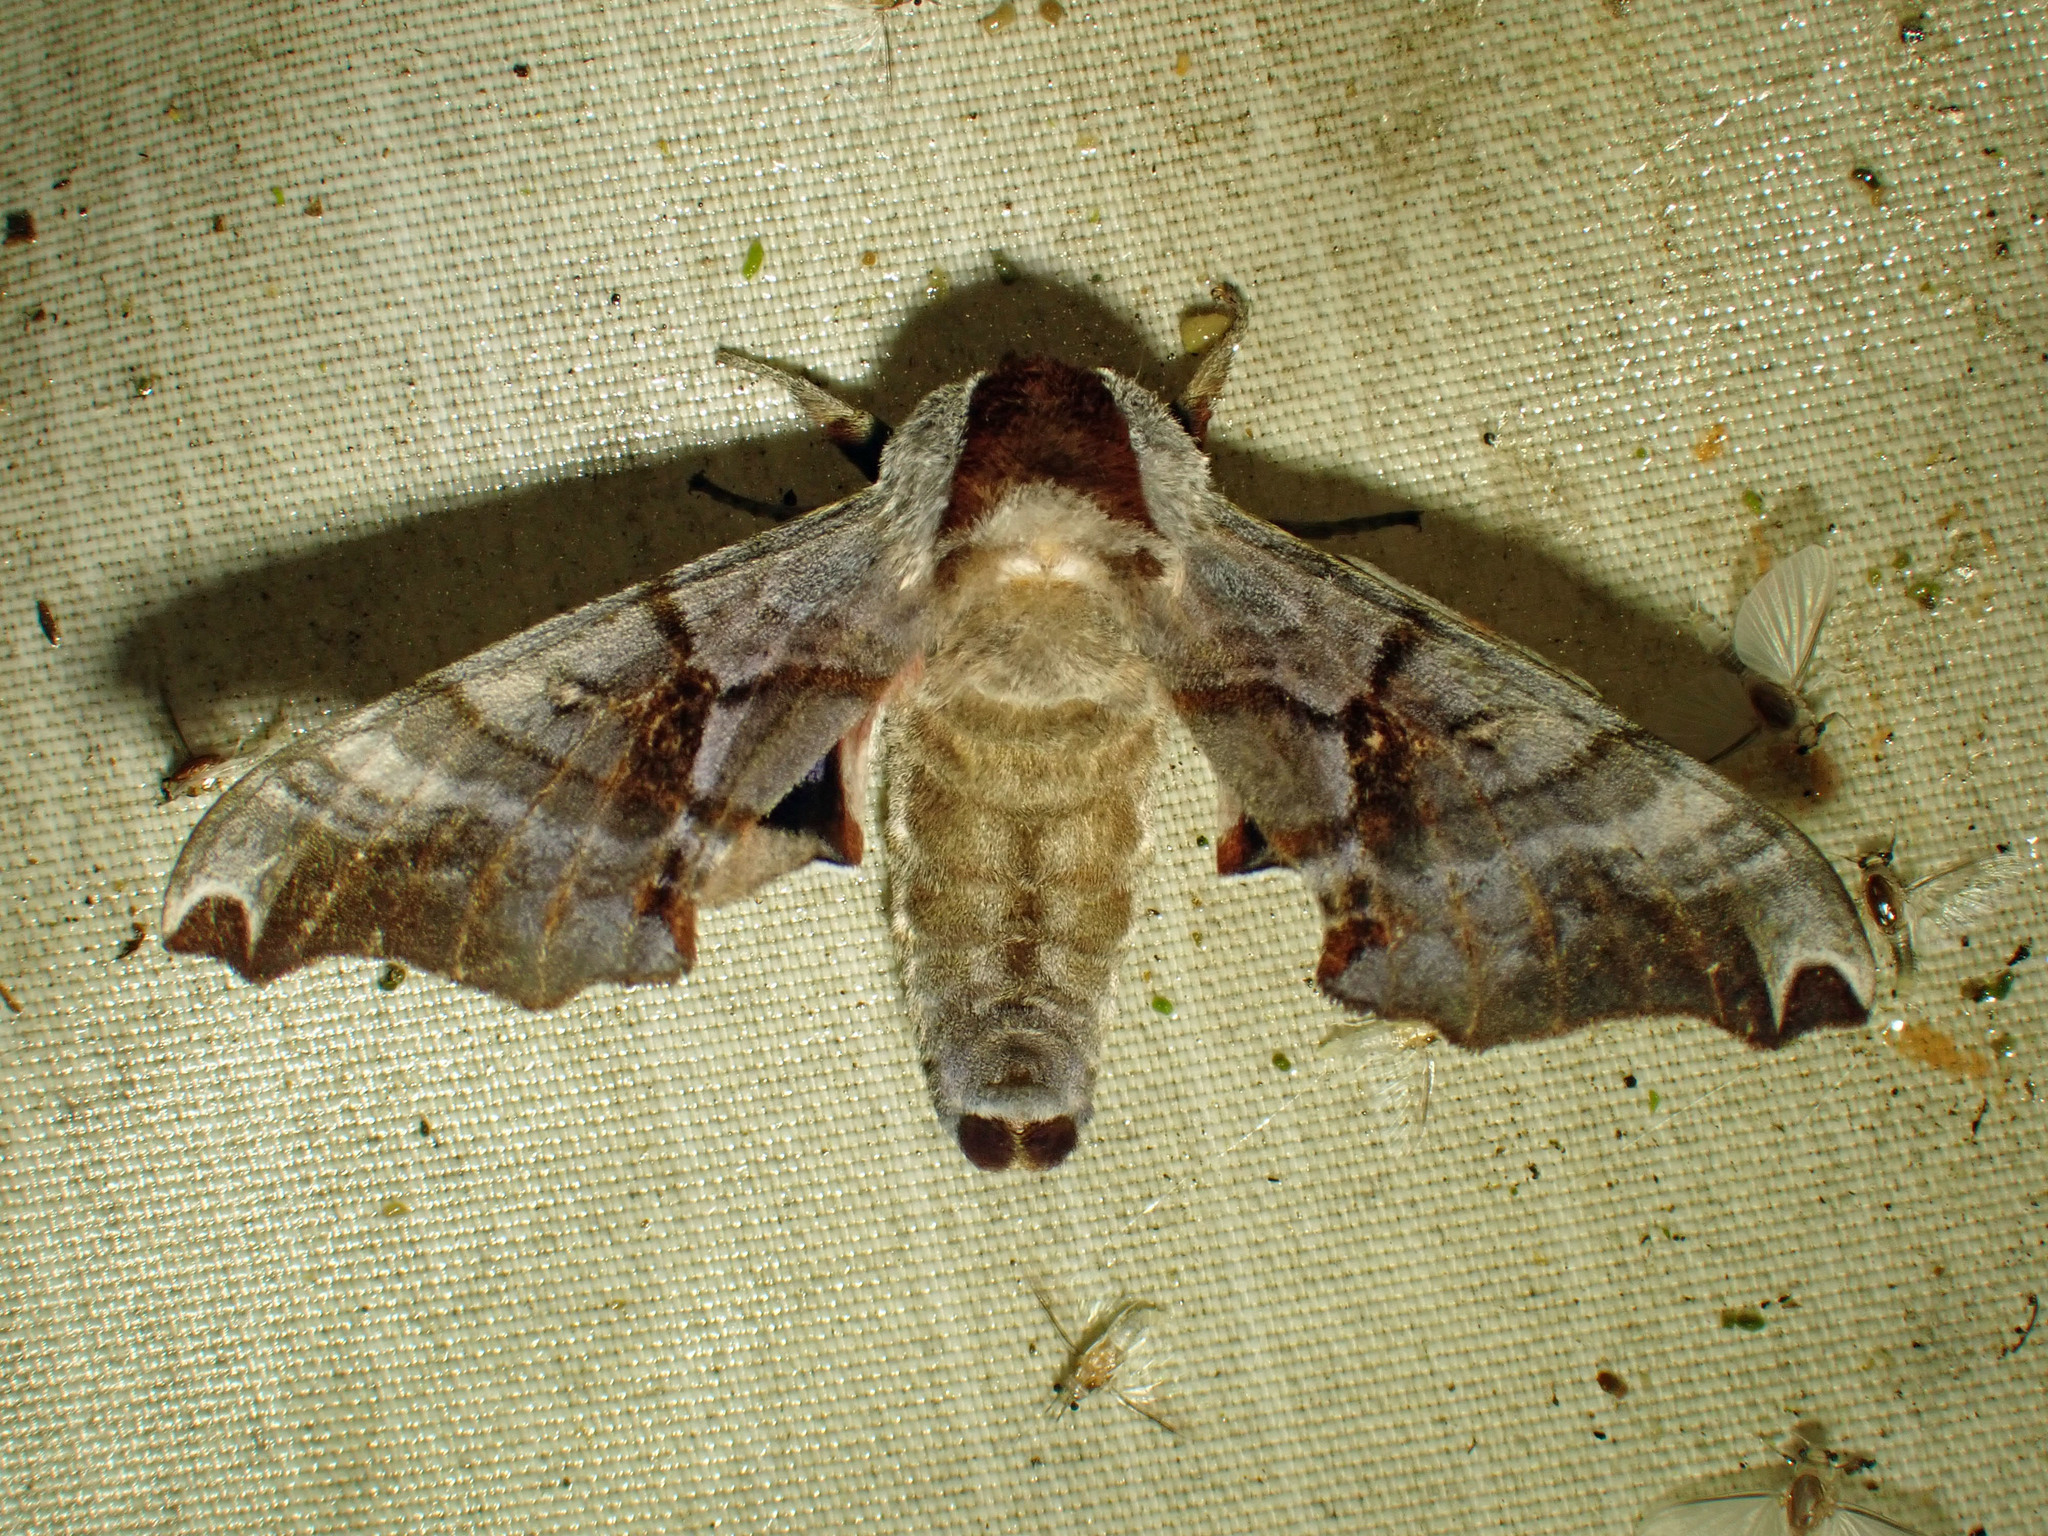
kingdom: Animalia
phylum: Arthropoda
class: Insecta
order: Lepidoptera
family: Sphingidae
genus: Smerinthus
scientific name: Smerinthus jamaicensis
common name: Twin spotted sphinx
